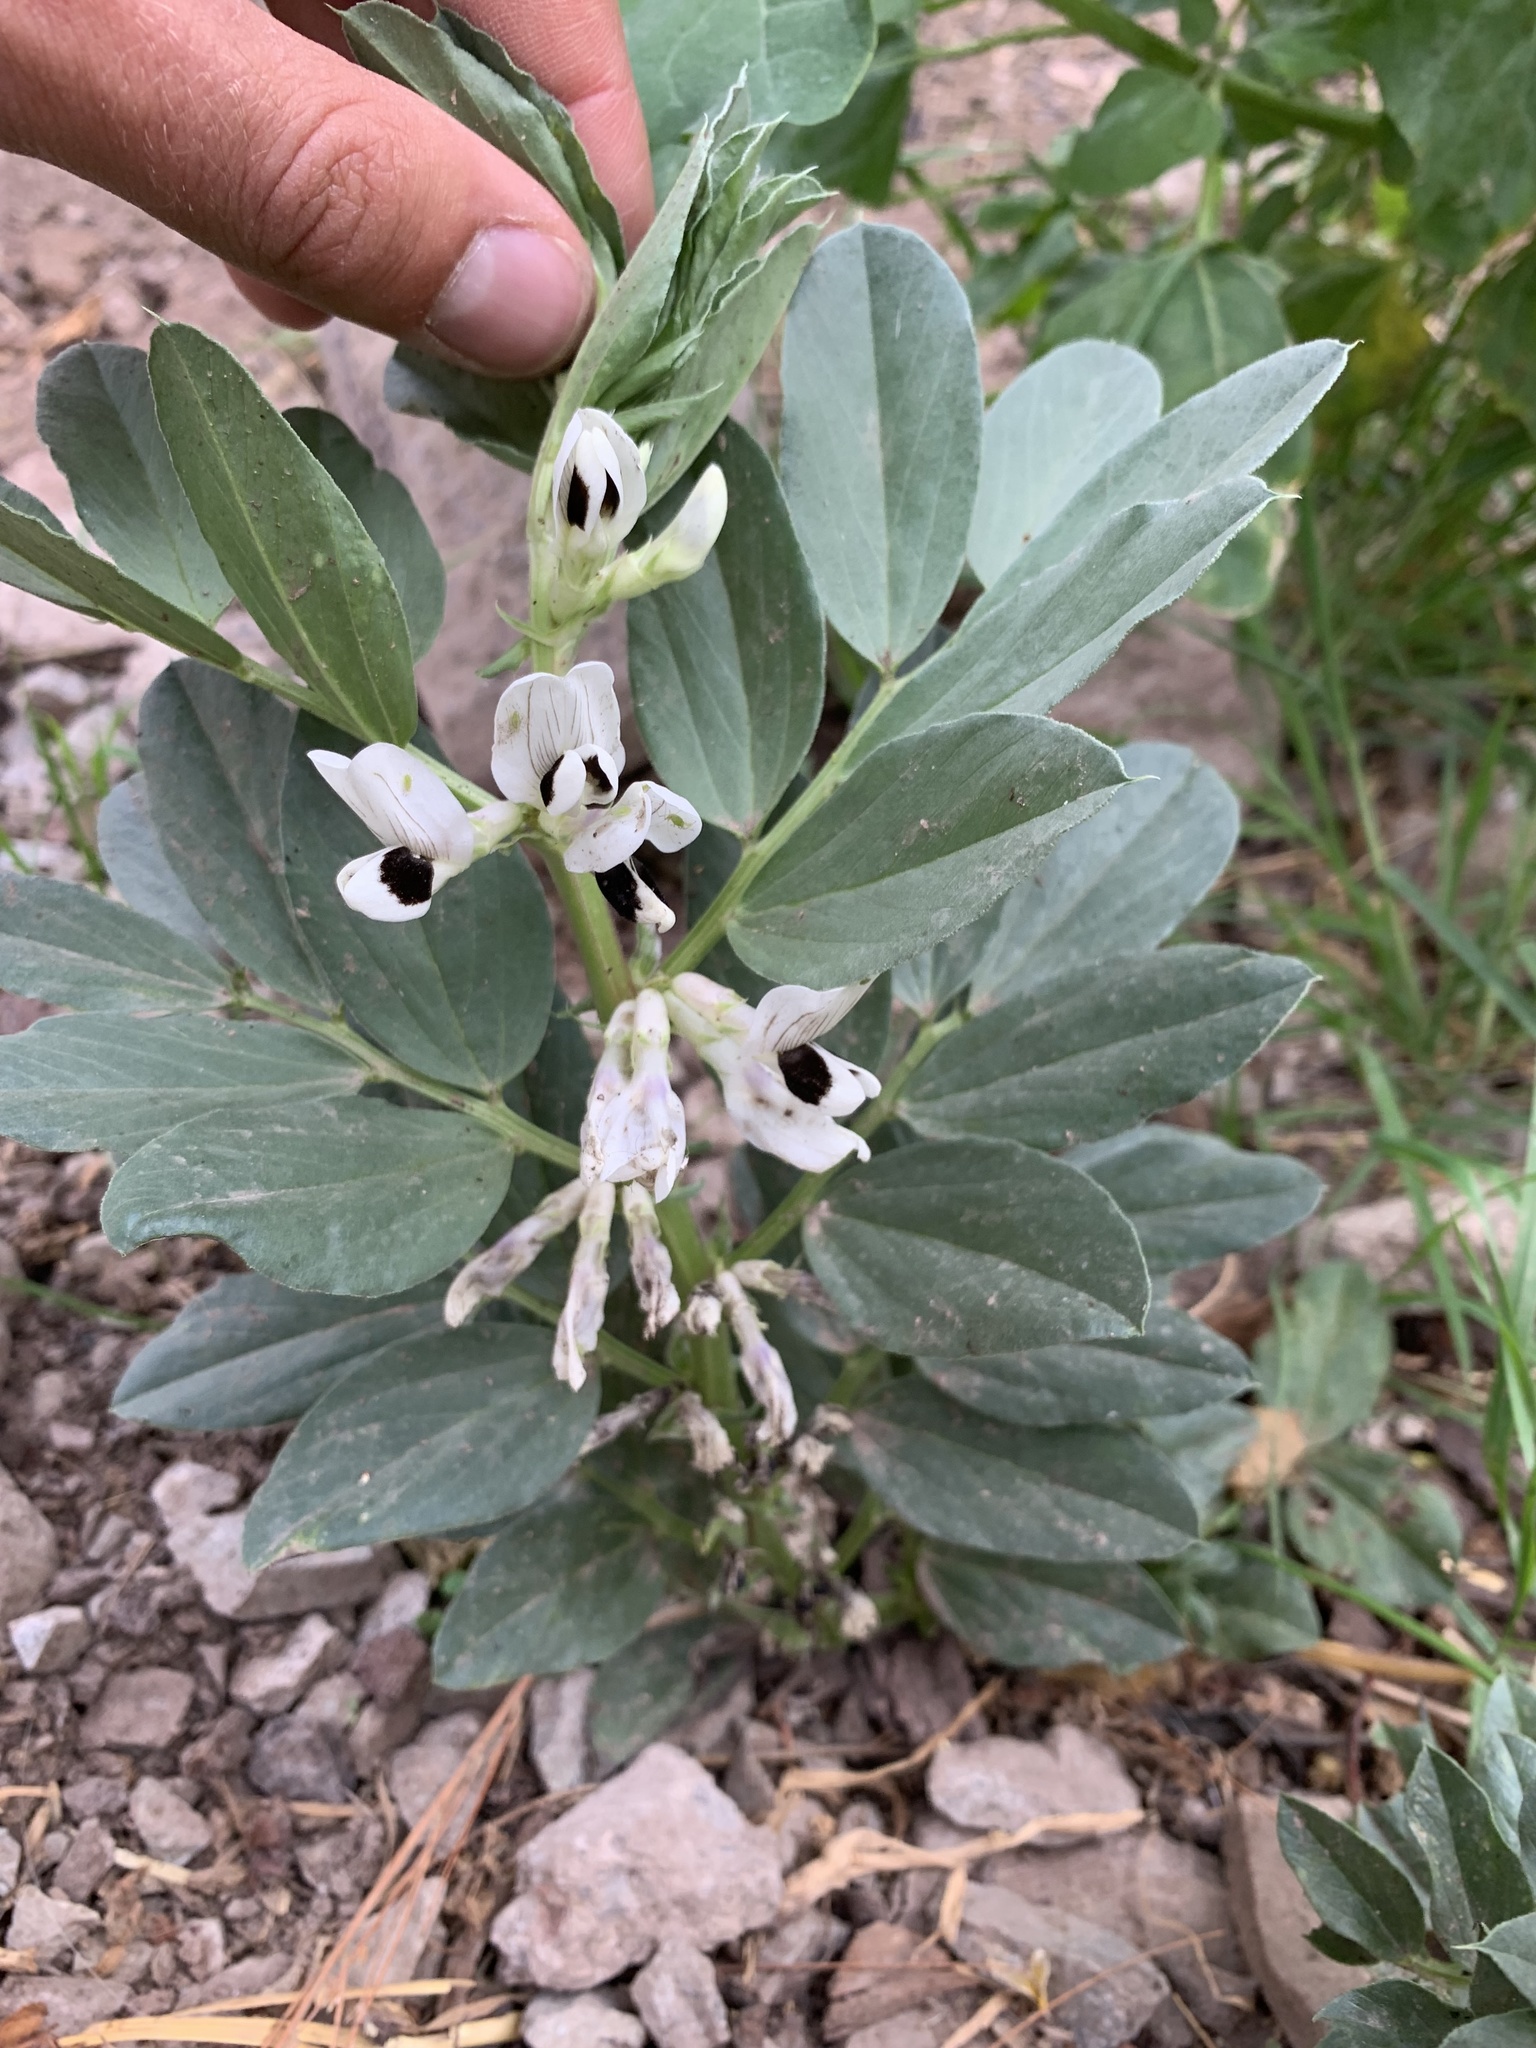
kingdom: Plantae
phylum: Tracheophyta
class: Magnoliopsida
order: Fabales
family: Fabaceae
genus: Vicia
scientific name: Vicia faba
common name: Broad bean
